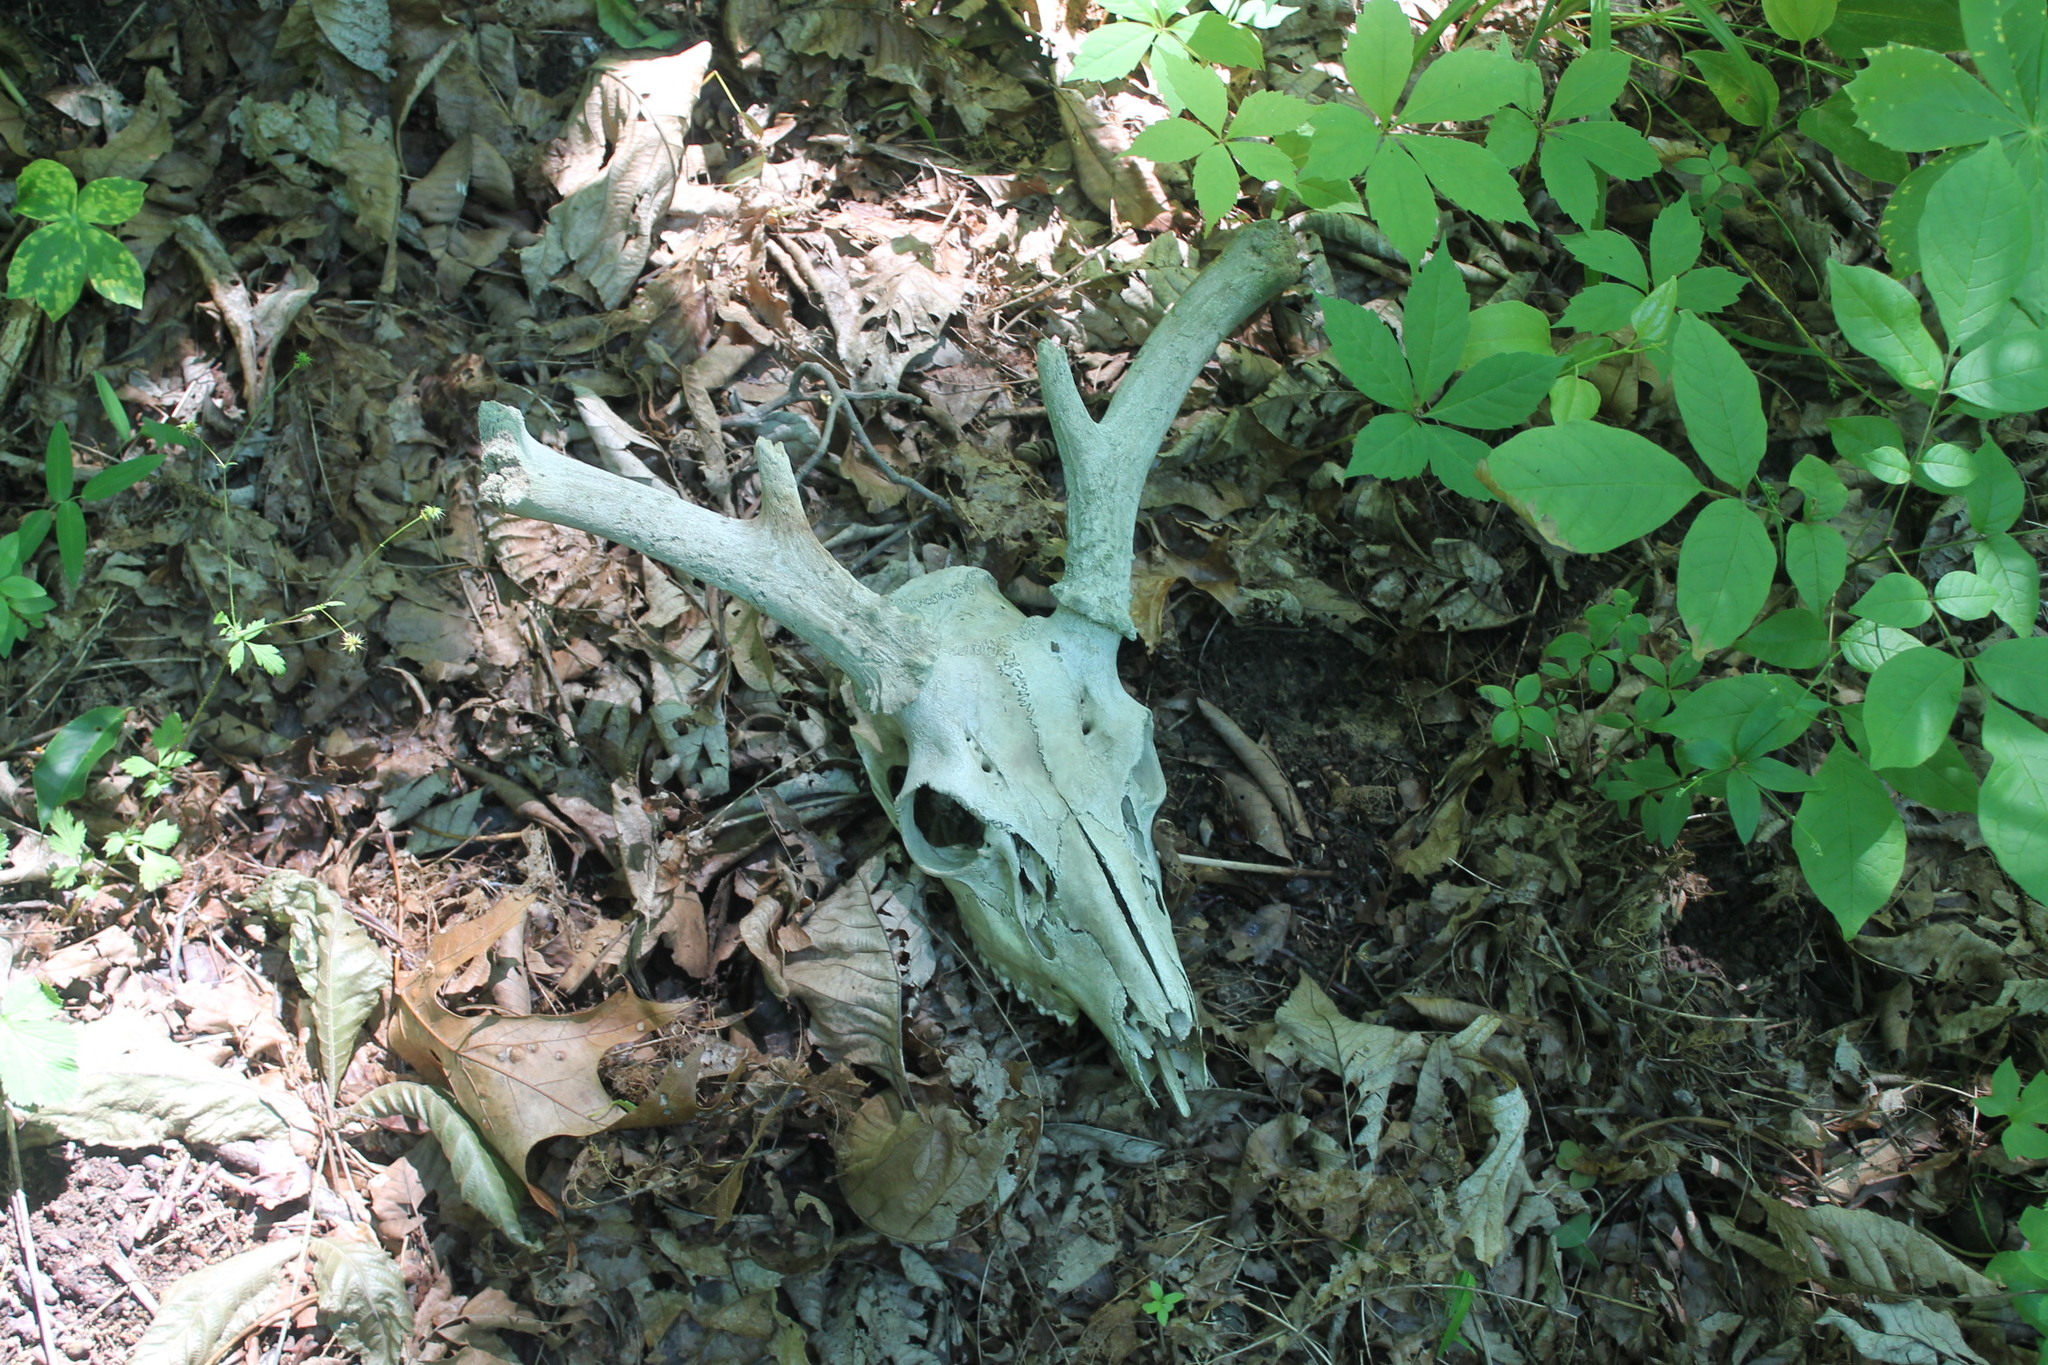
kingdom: Animalia
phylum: Chordata
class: Mammalia
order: Artiodactyla
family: Cervidae
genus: Odocoileus
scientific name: Odocoileus virginianus
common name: White-tailed deer
